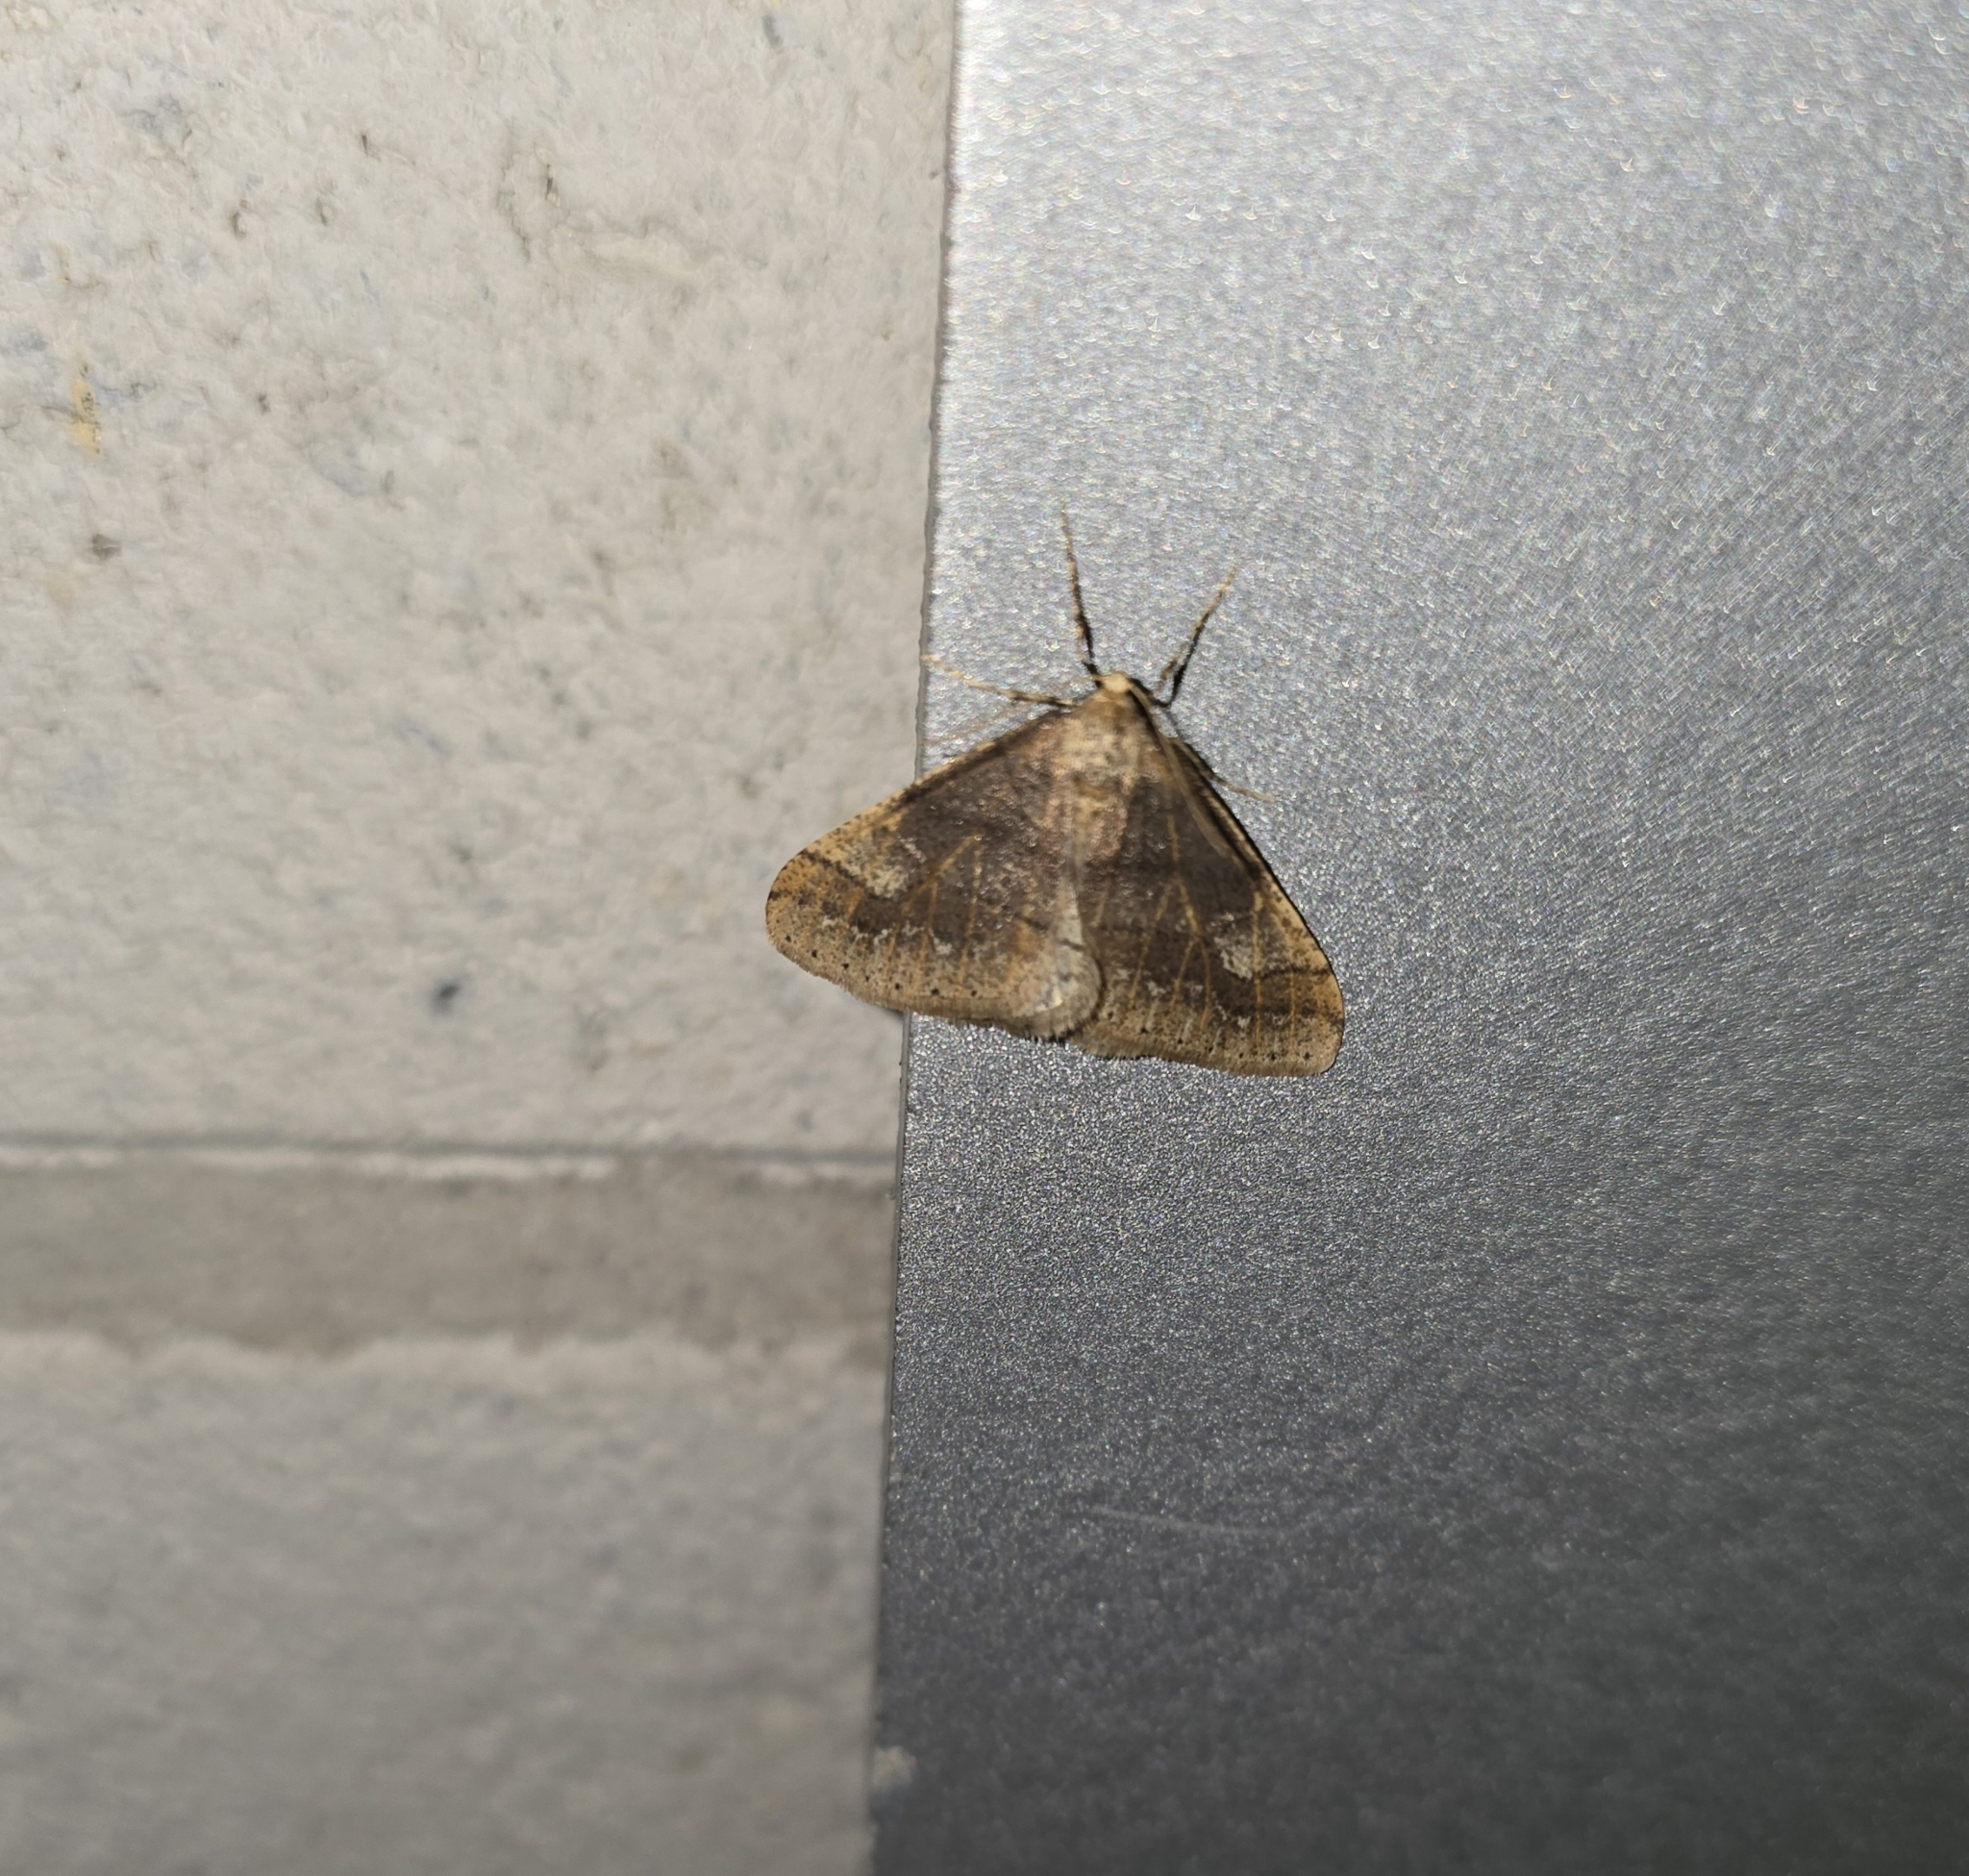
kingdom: Animalia
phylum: Arthropoda
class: Insecta
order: Lepidoptera
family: Geometridae
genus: Agriopis
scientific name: Agriopis marginaria
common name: Dotted border
